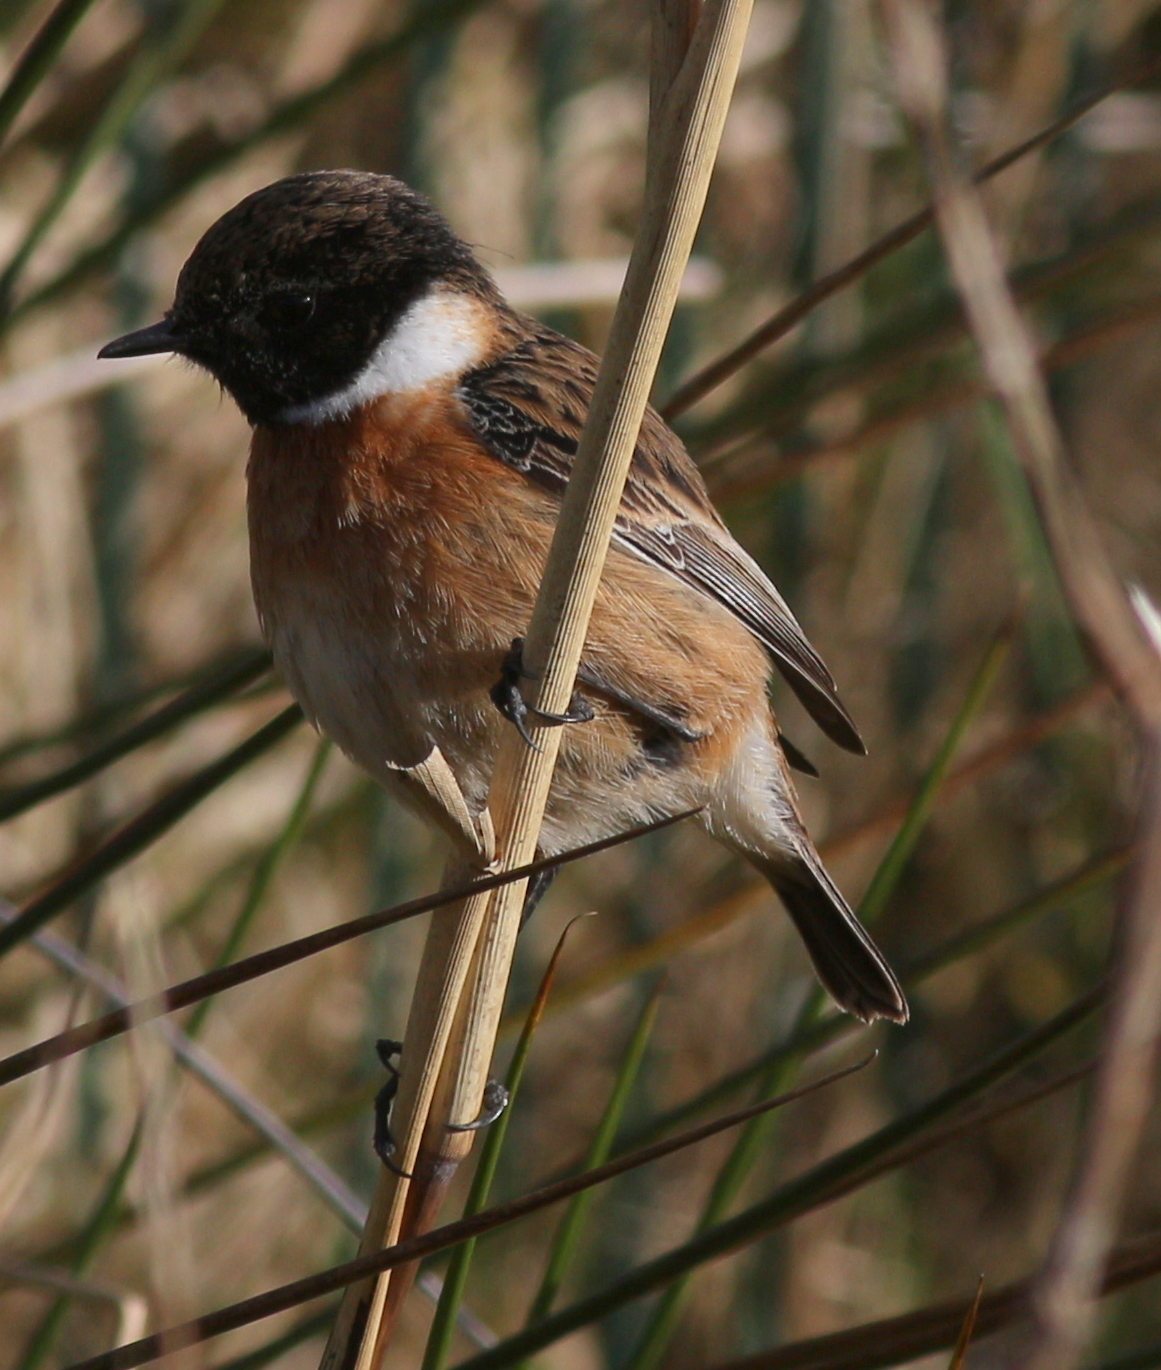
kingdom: Animalia
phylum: Chordata
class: Aves
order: Passeriformes
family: Muscicapidae
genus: Saxicola
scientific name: Saxicola rubicola
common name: European stonechat
